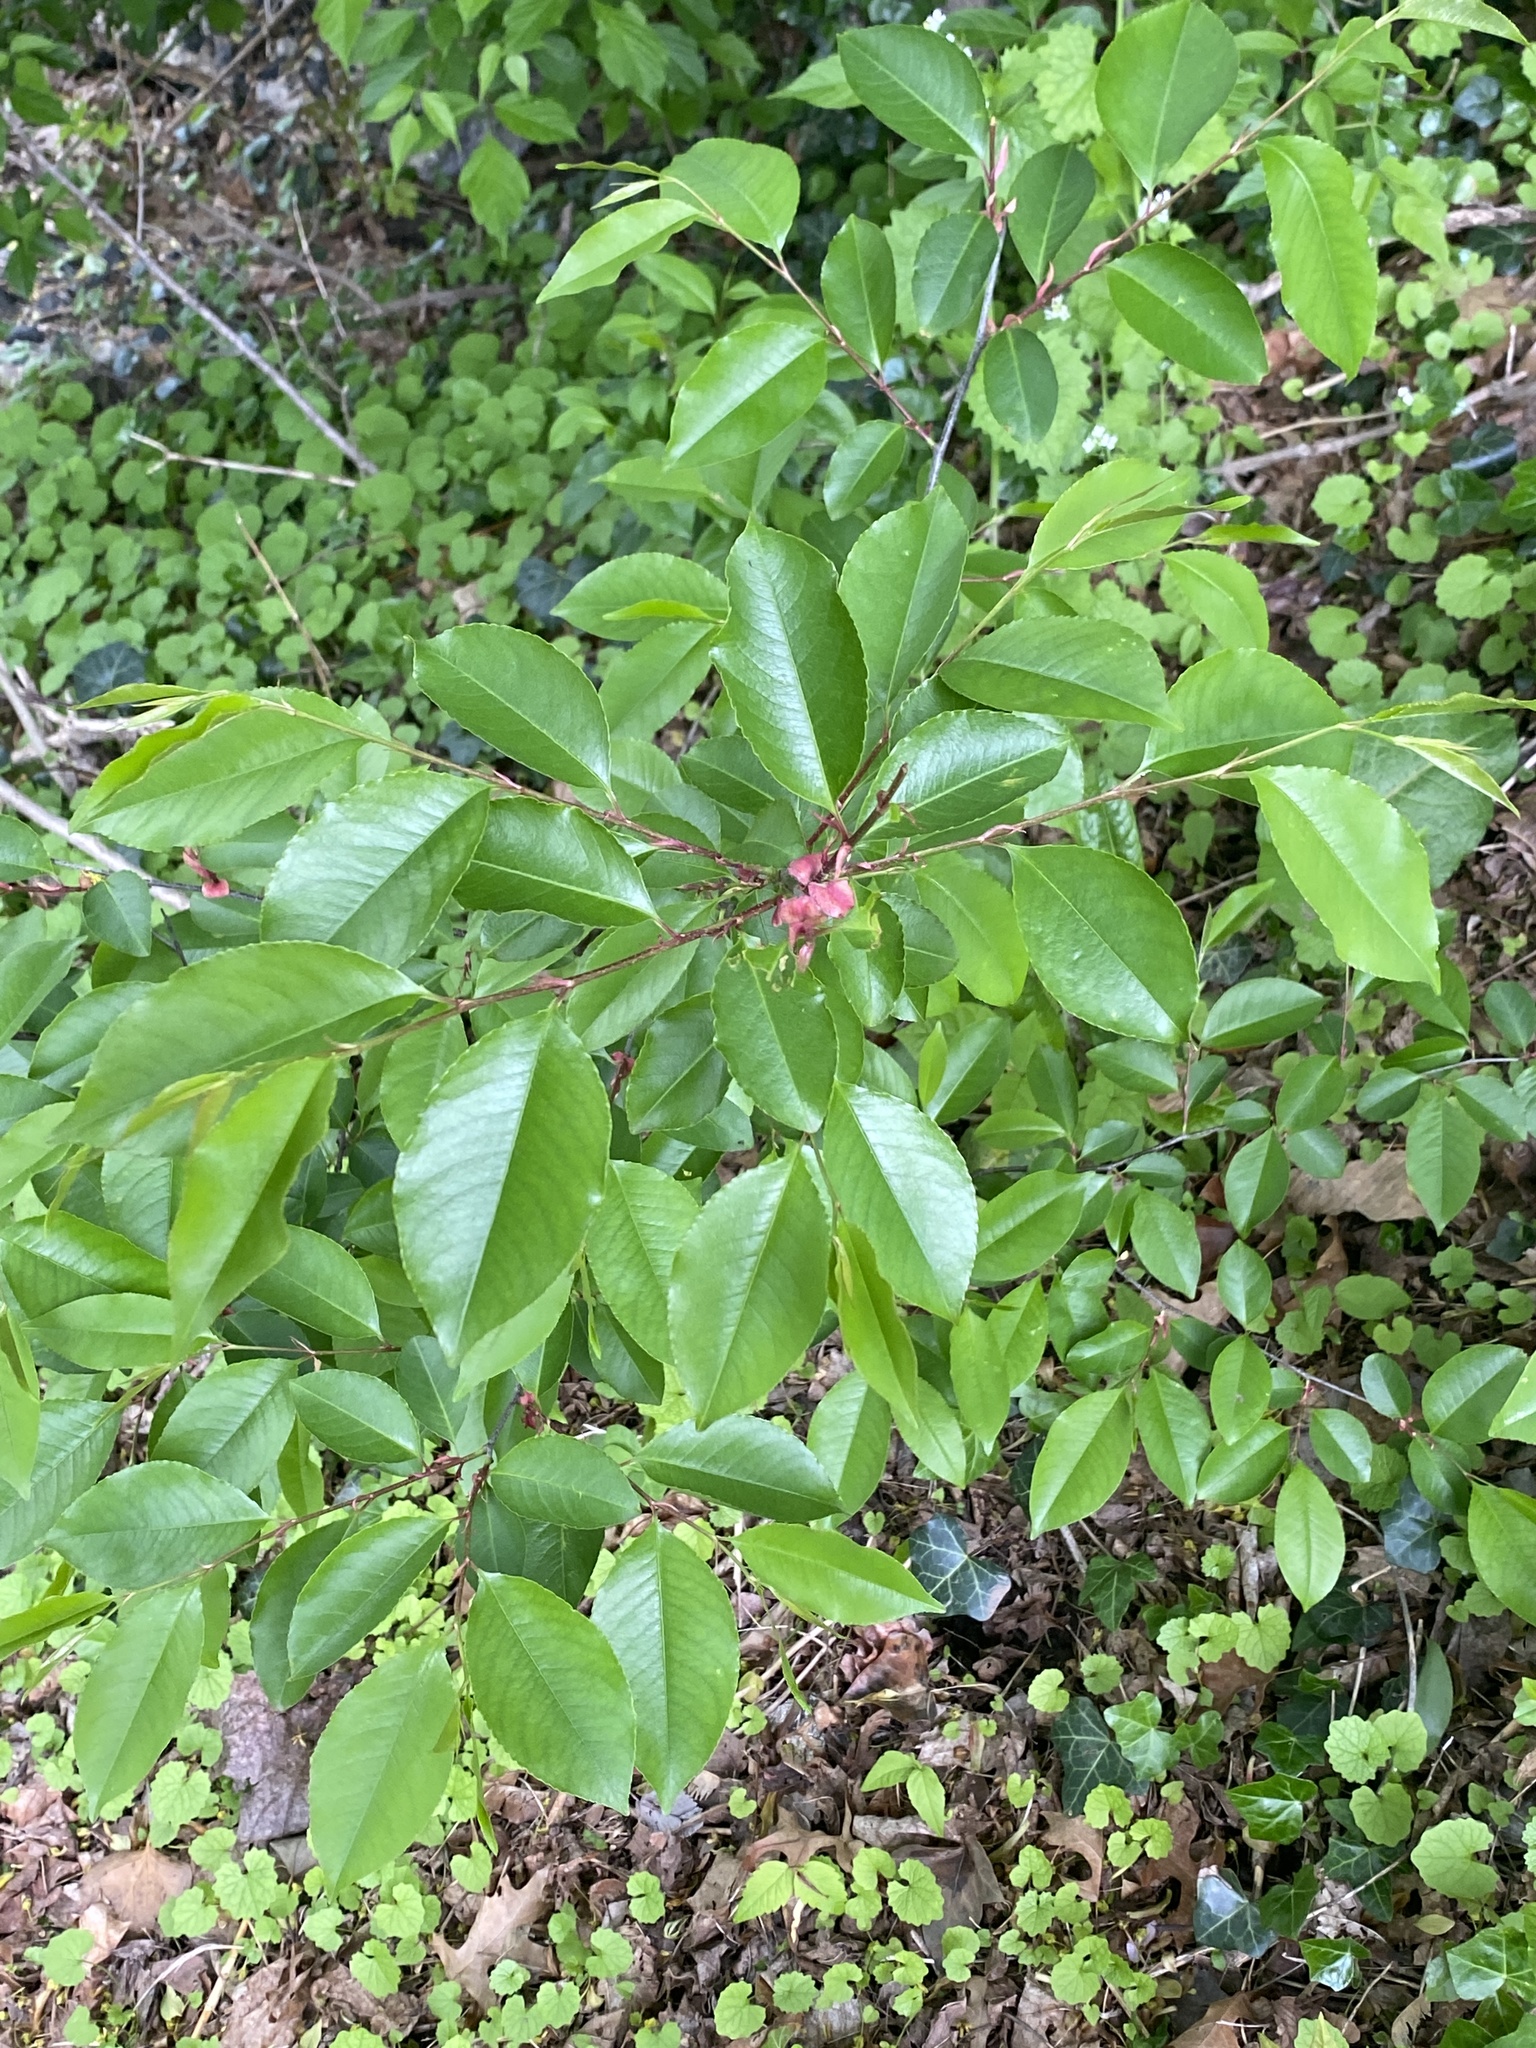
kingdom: Plantae
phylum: Tracheophyta
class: Magnoliopsida
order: Rosales
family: Rosaceae
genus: Prunus
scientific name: Prunus serotina
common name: Black cherry
